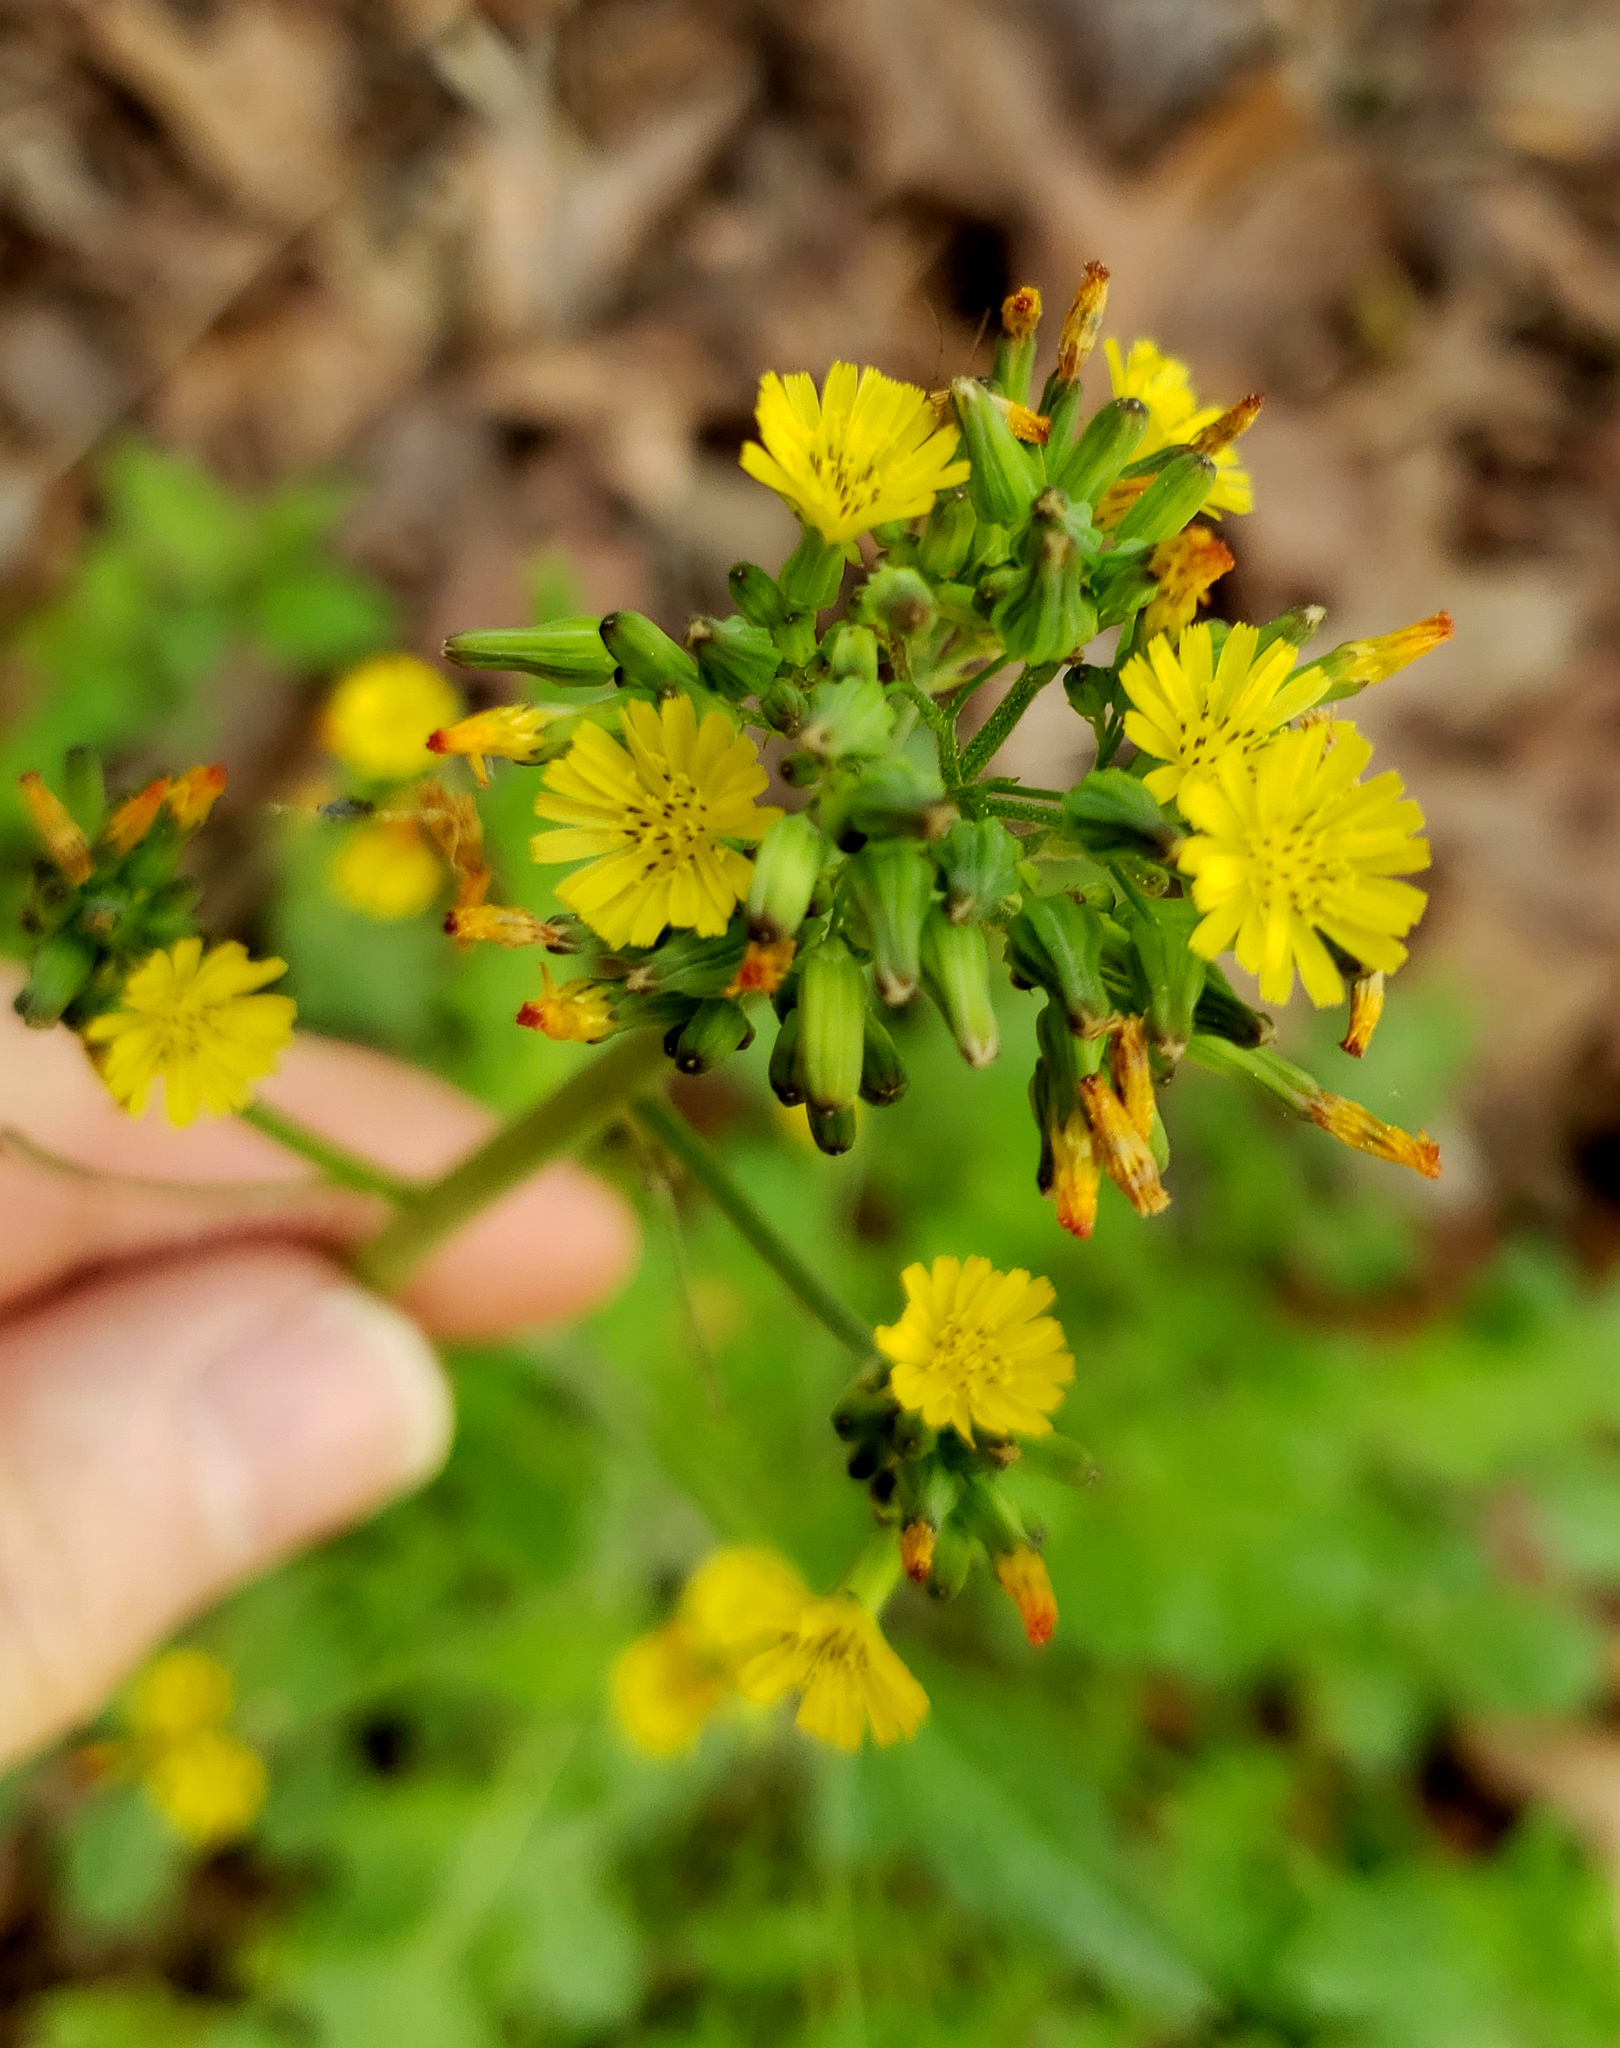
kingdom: Plantae
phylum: Tracheophyta
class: Magnoliopsida
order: Asterales
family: Asteraceae
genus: Youngia
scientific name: Youngia japonica
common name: Oriental false hawksbeard
